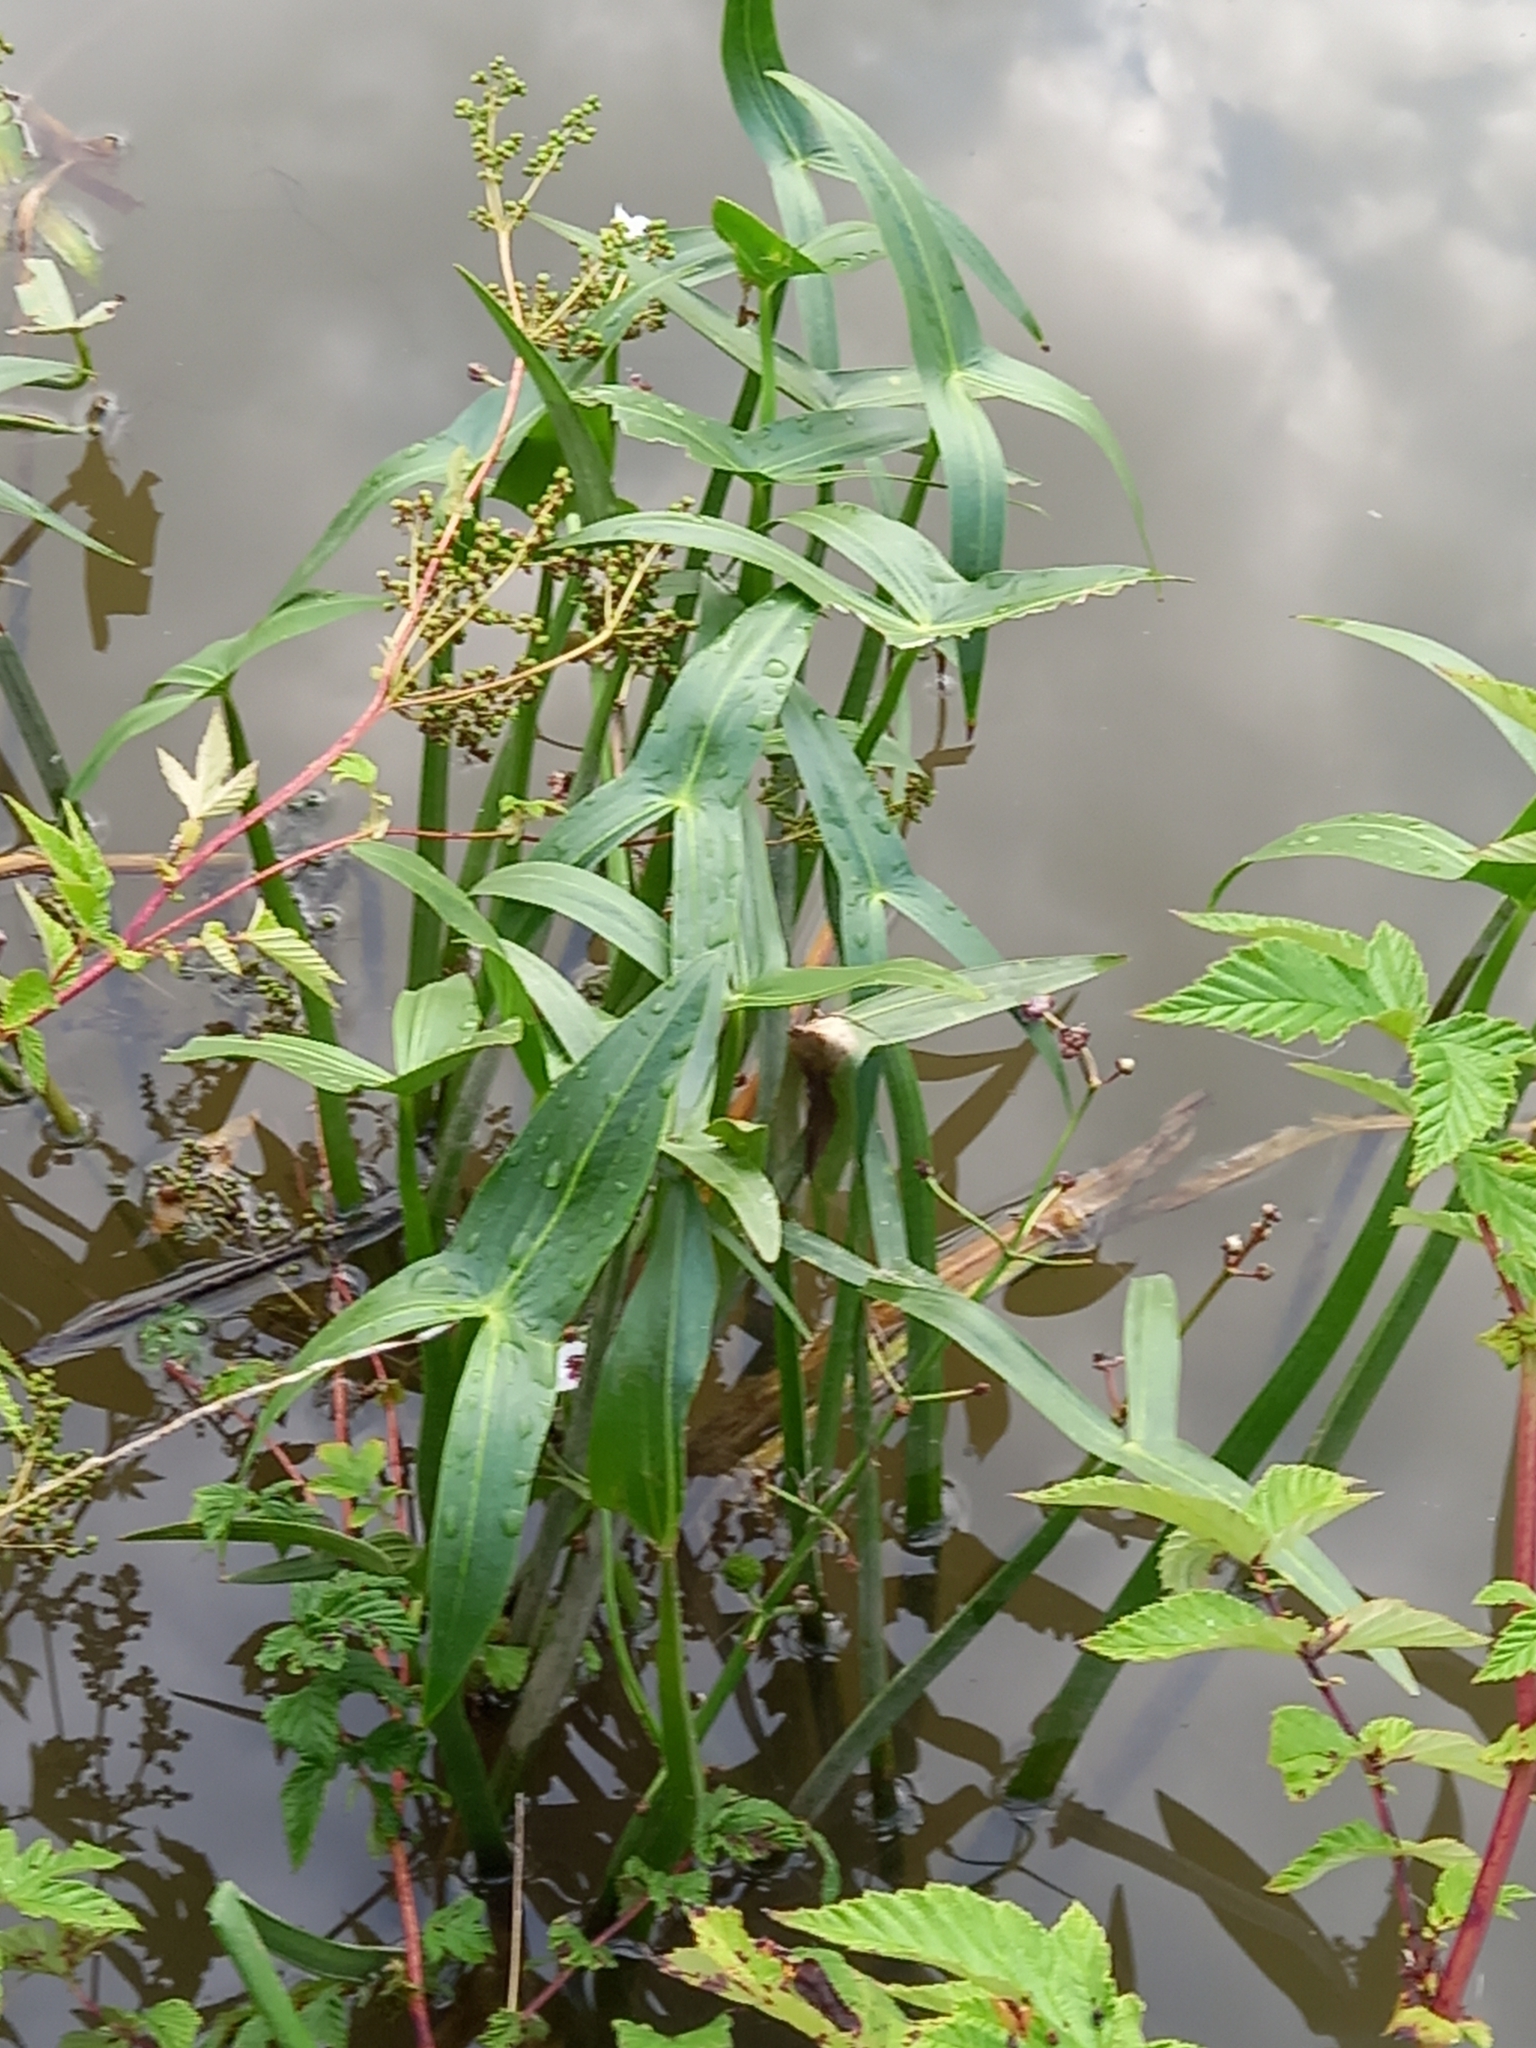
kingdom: Plantae
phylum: Tracheophyta
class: Liliopsida
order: Alismatales
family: Alismataceae
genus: Sagittaria
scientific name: Sagittaria sagittifolia
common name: Arrowhead
